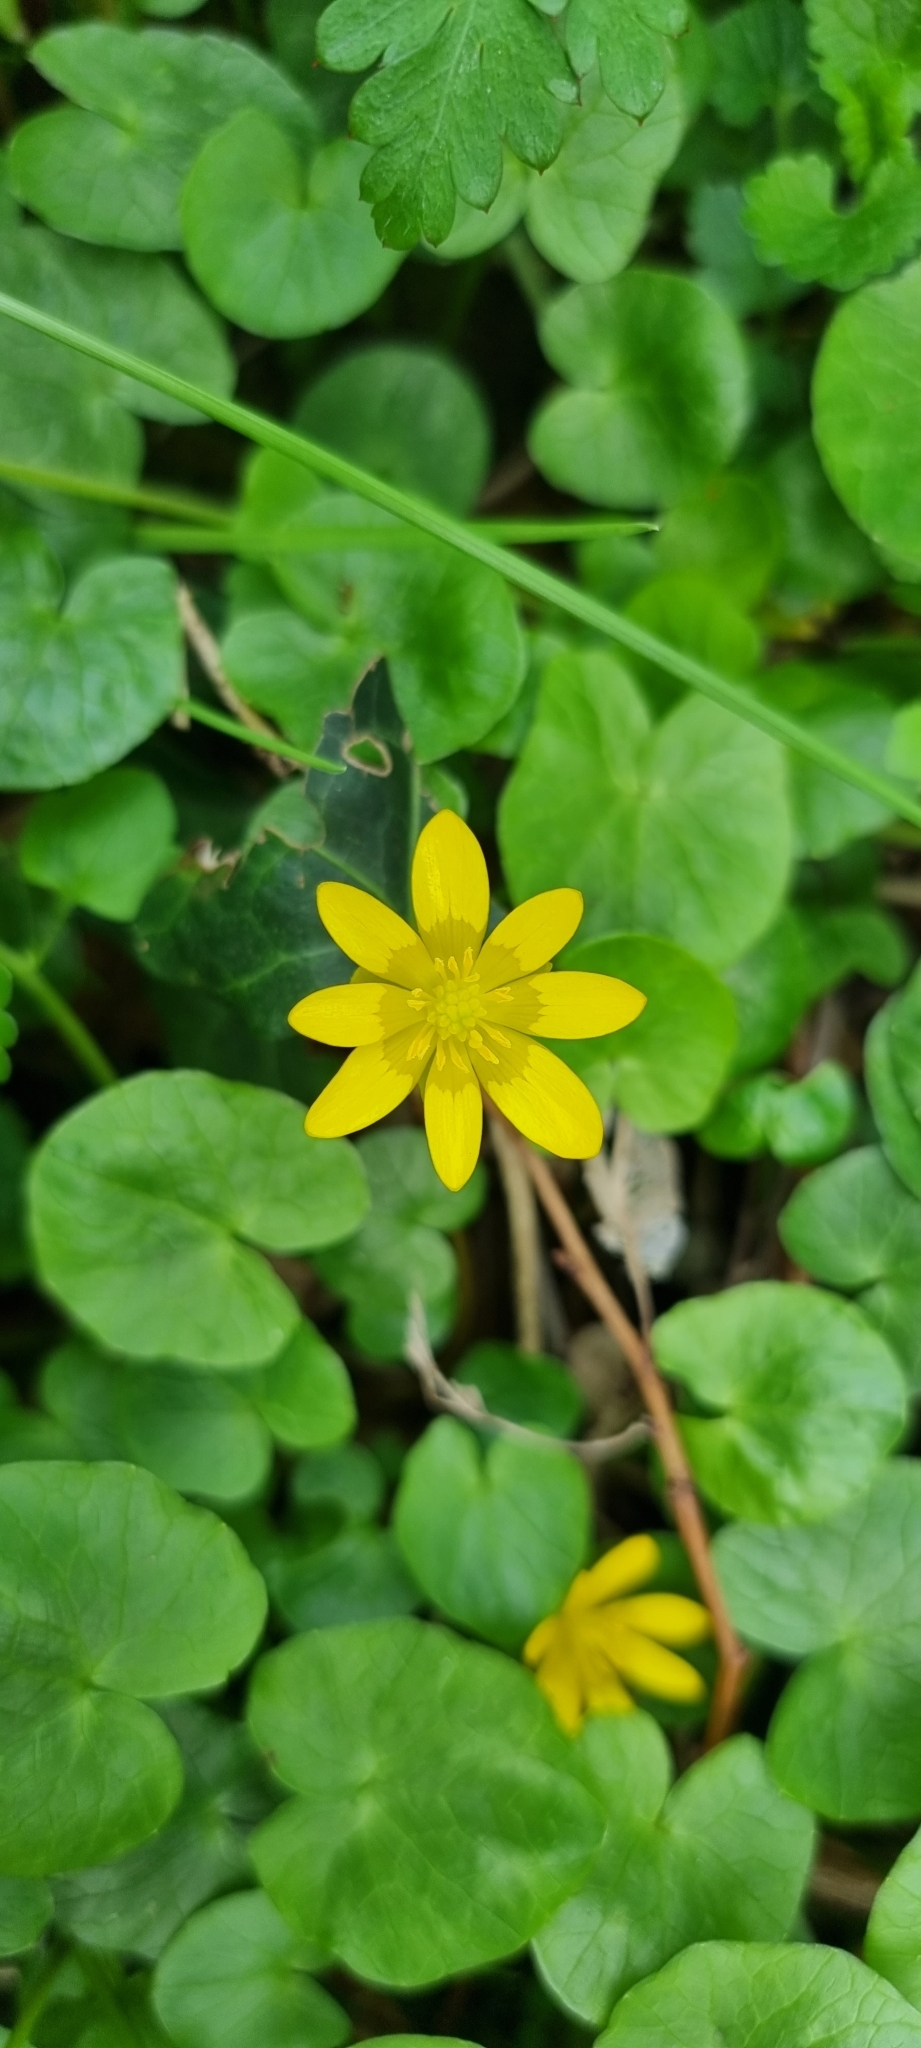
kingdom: Plantae
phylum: Tracheophyta
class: Magnoliopsida
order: Ranunculales
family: Ranunculaceae
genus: Ficaria
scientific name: Ficaria verna
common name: Lesser celandine
